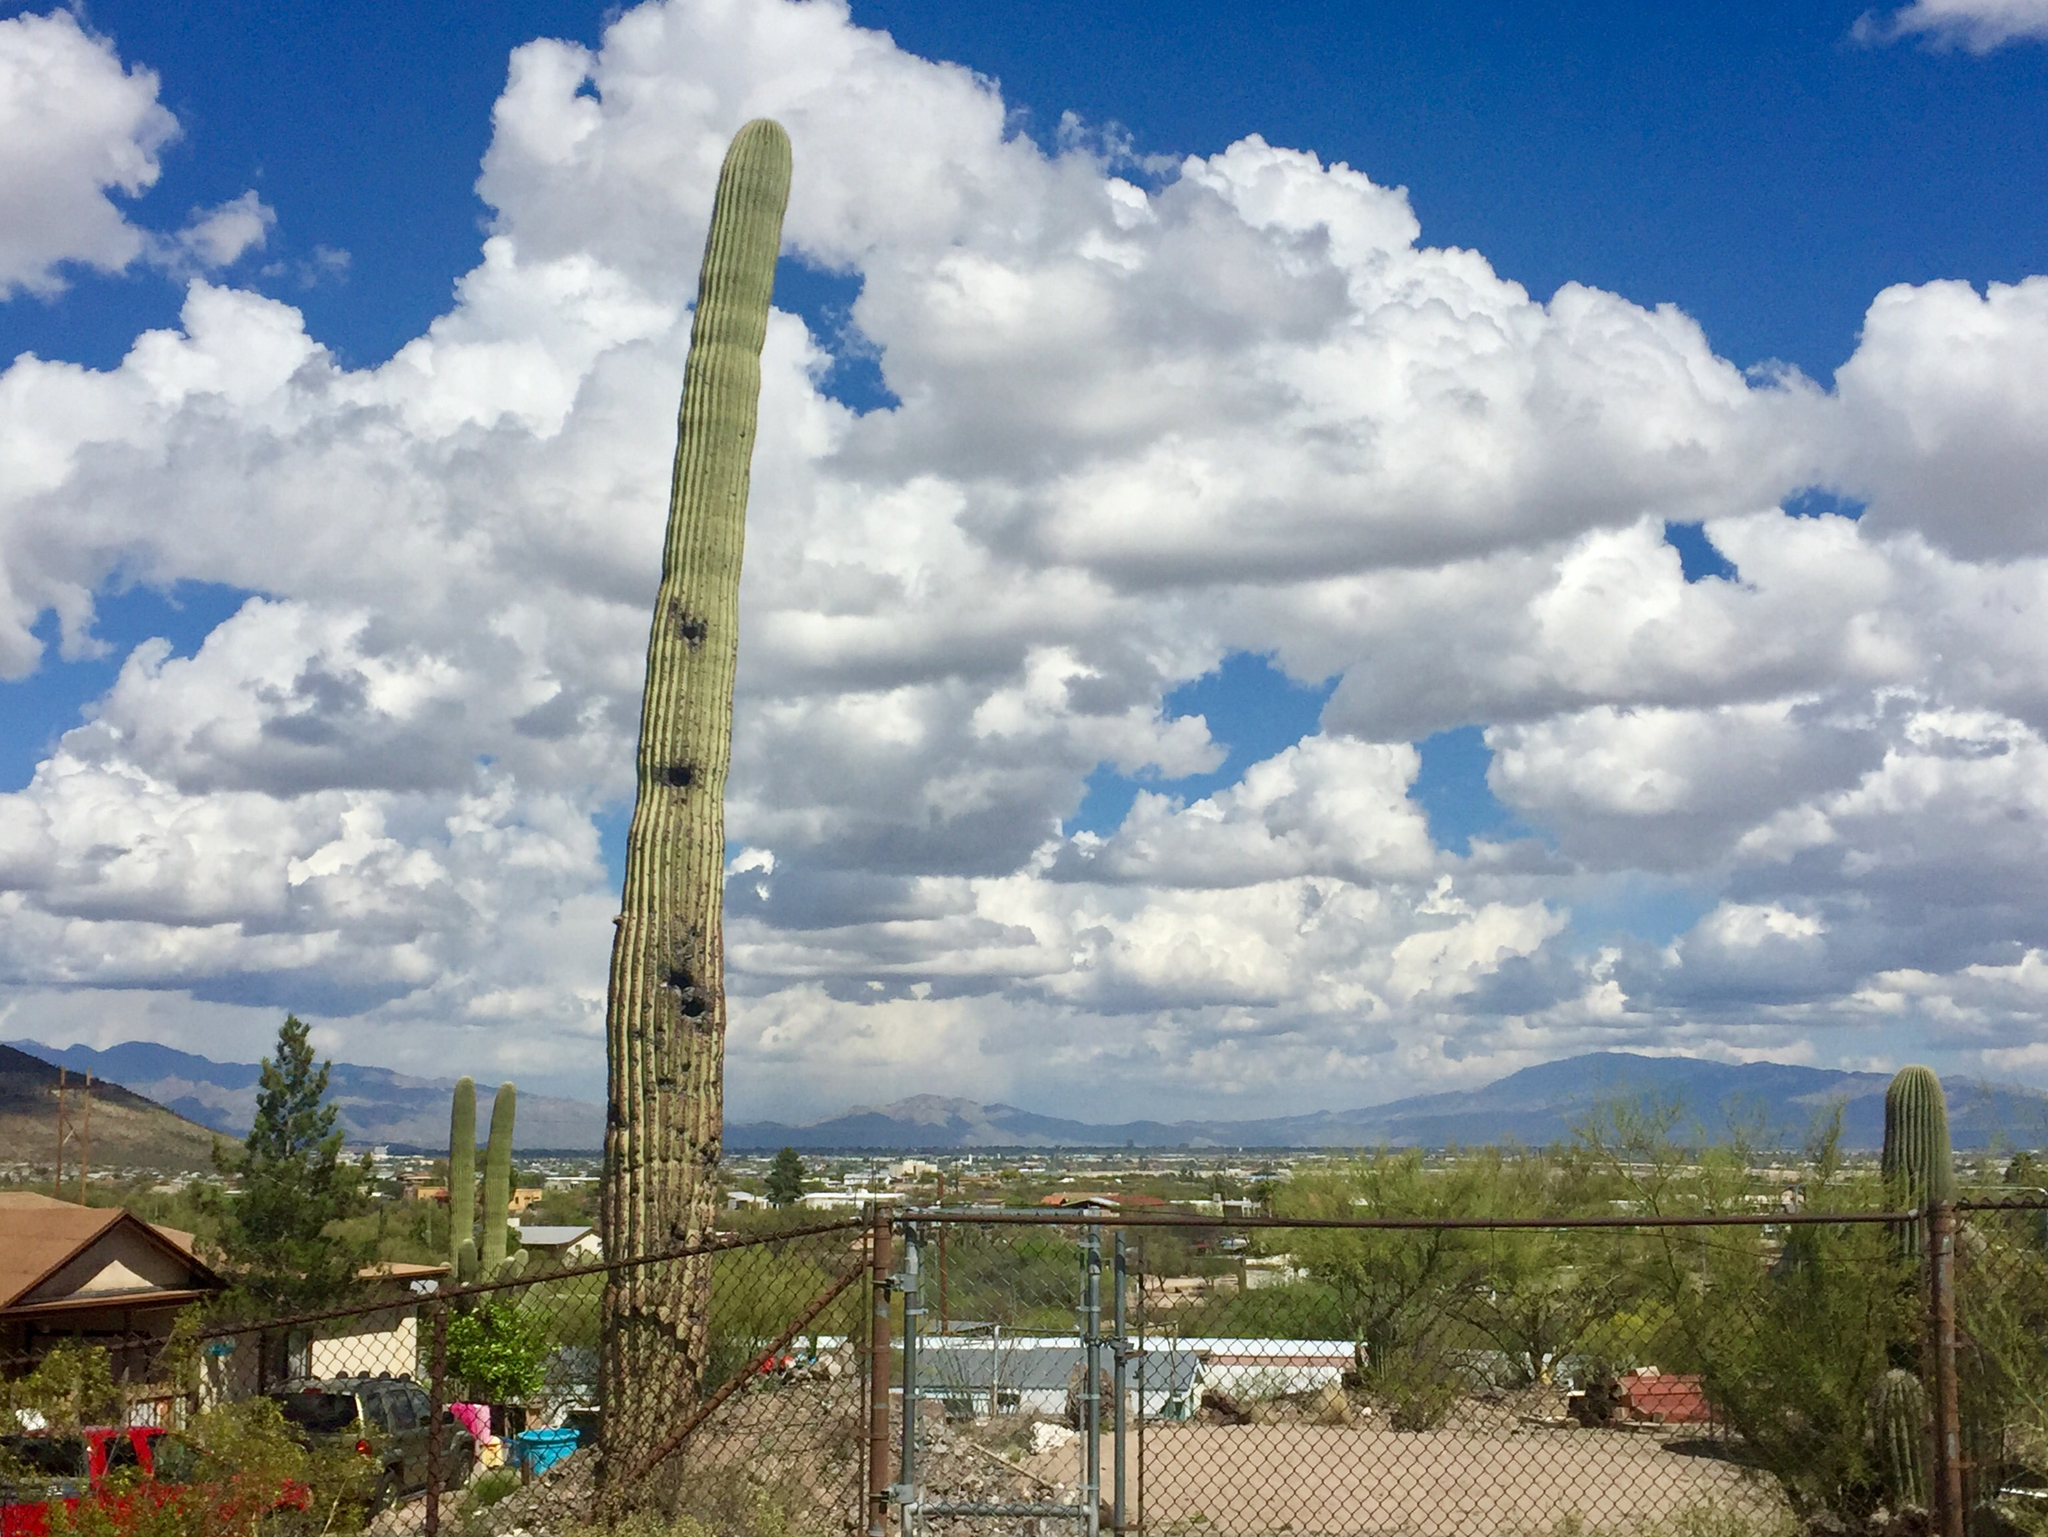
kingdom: Plantae
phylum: Tracheophyta
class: Magnoliopsida
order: Caryophyllales
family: Cactaceae
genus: Carnegiea
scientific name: Carnegiea gigantea
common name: Saguaro
